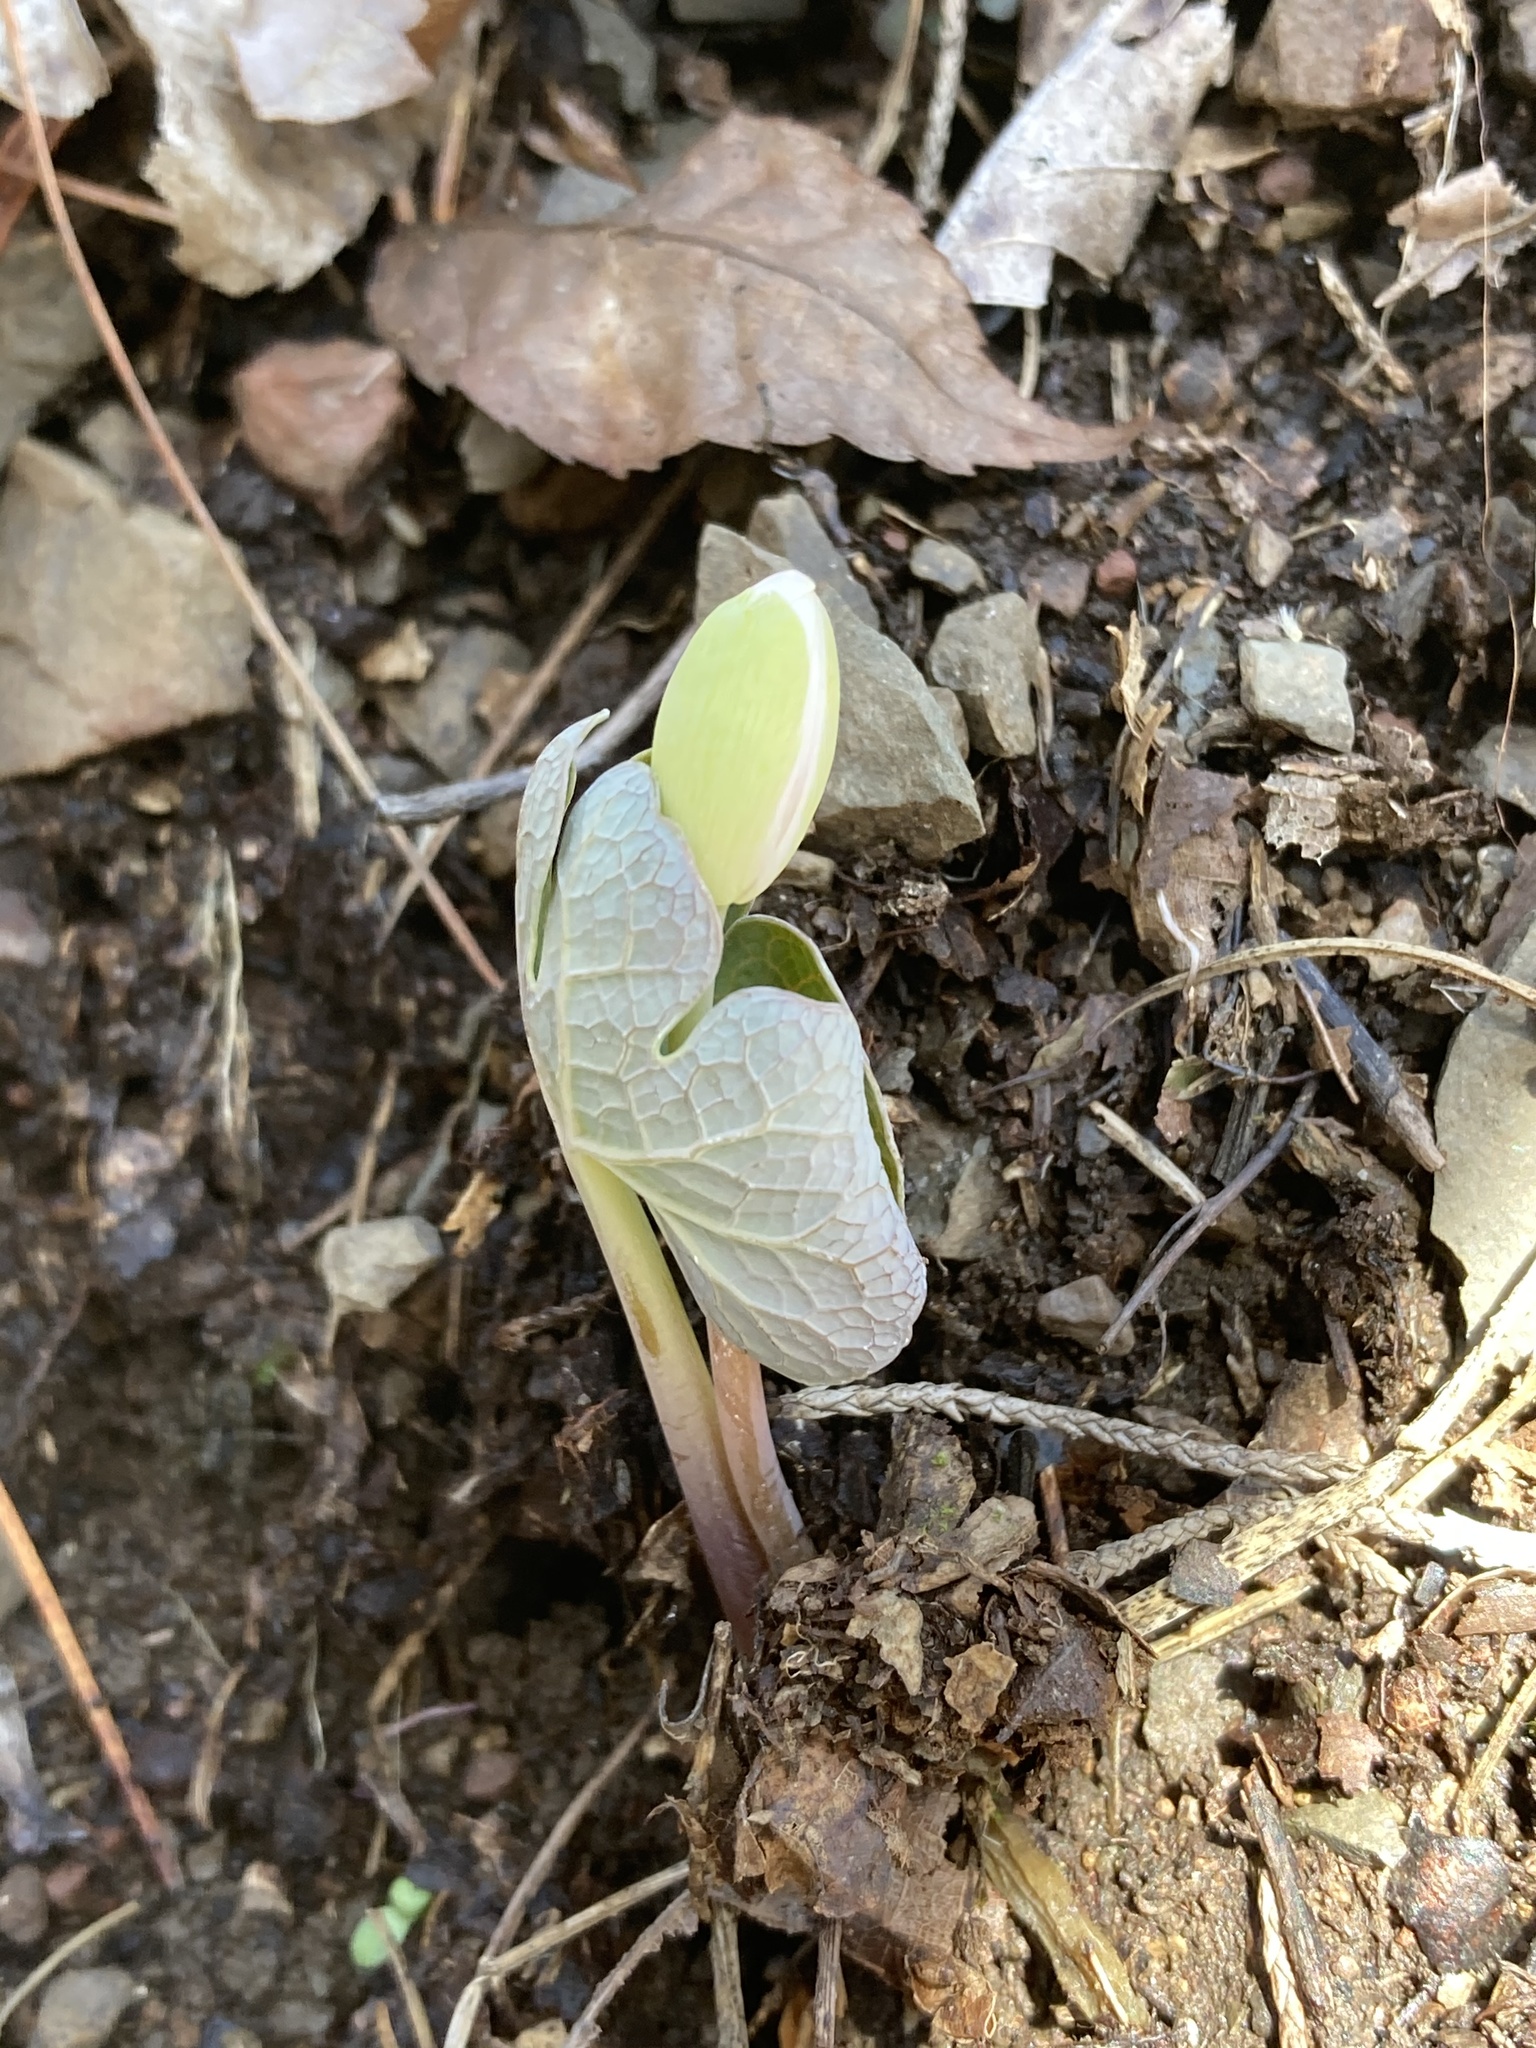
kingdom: Plantae
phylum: Tracheophyta
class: Magnoliopsida
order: Ranunculales
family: Papaveraceae
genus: Sanguinaria
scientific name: Sanguinaria canadensis
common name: Bloodroot
